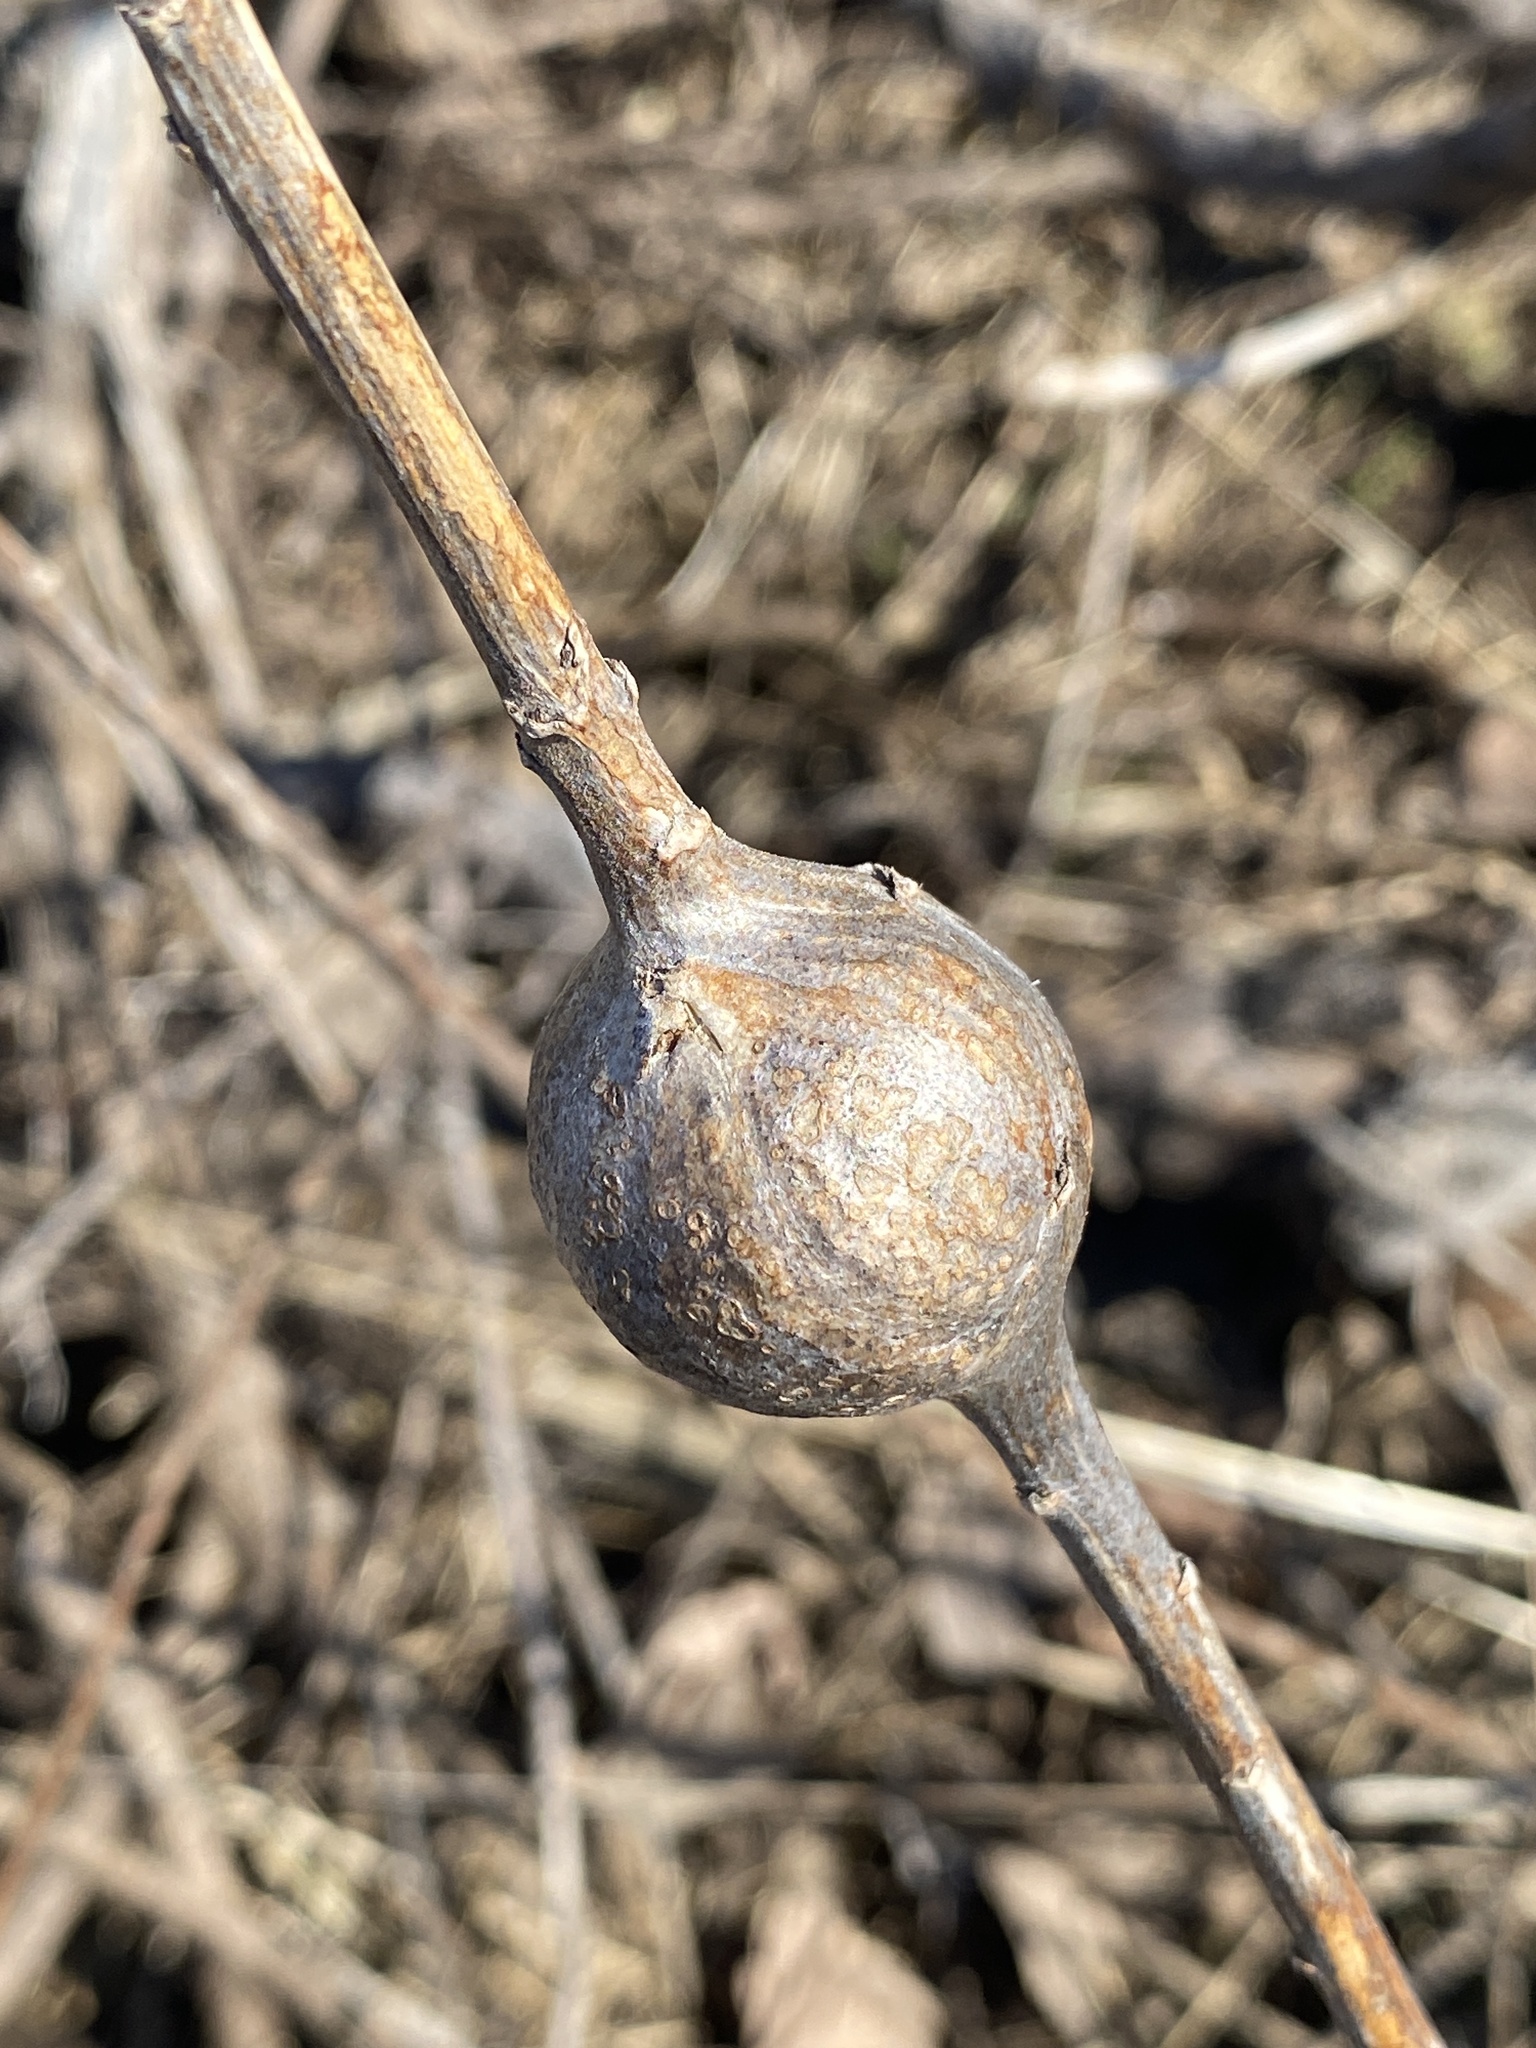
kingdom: Animalia
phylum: Arthropoda
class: Insecta
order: Diptera
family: Tephritidae
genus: Eurosta
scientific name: Eurosta solidaginis
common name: Goldenrod gall fly
